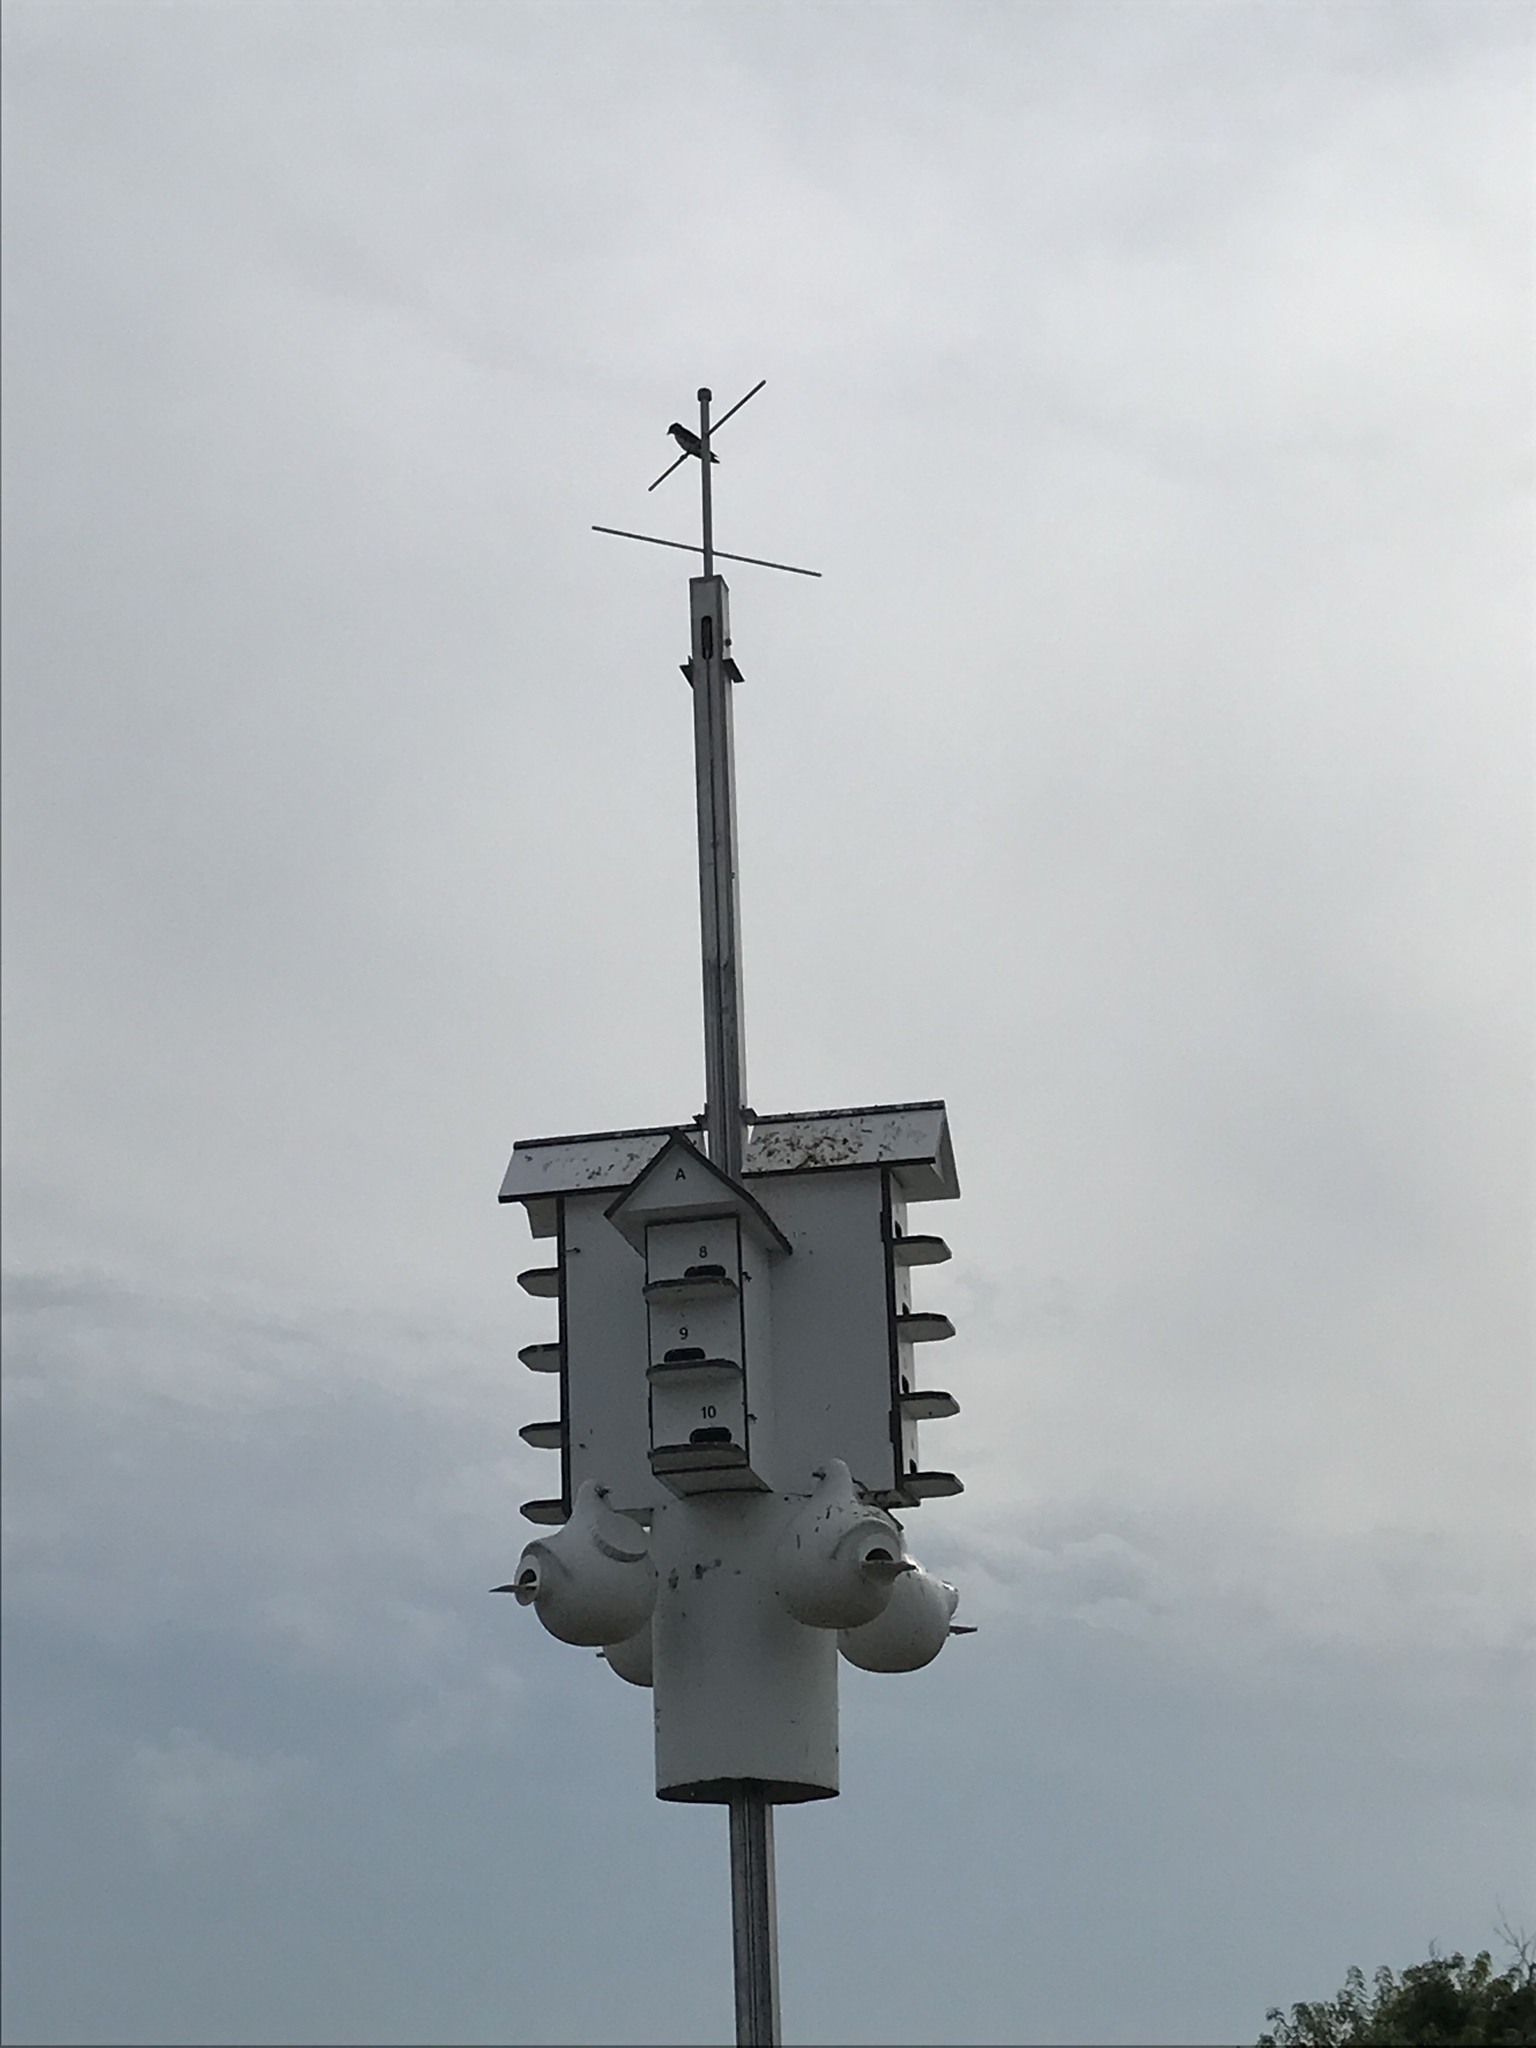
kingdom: Animalia
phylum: Chordata
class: Aves
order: Passeriformes
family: Hirundinidae
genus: Progne
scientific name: Progne subis
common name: Purple martin
